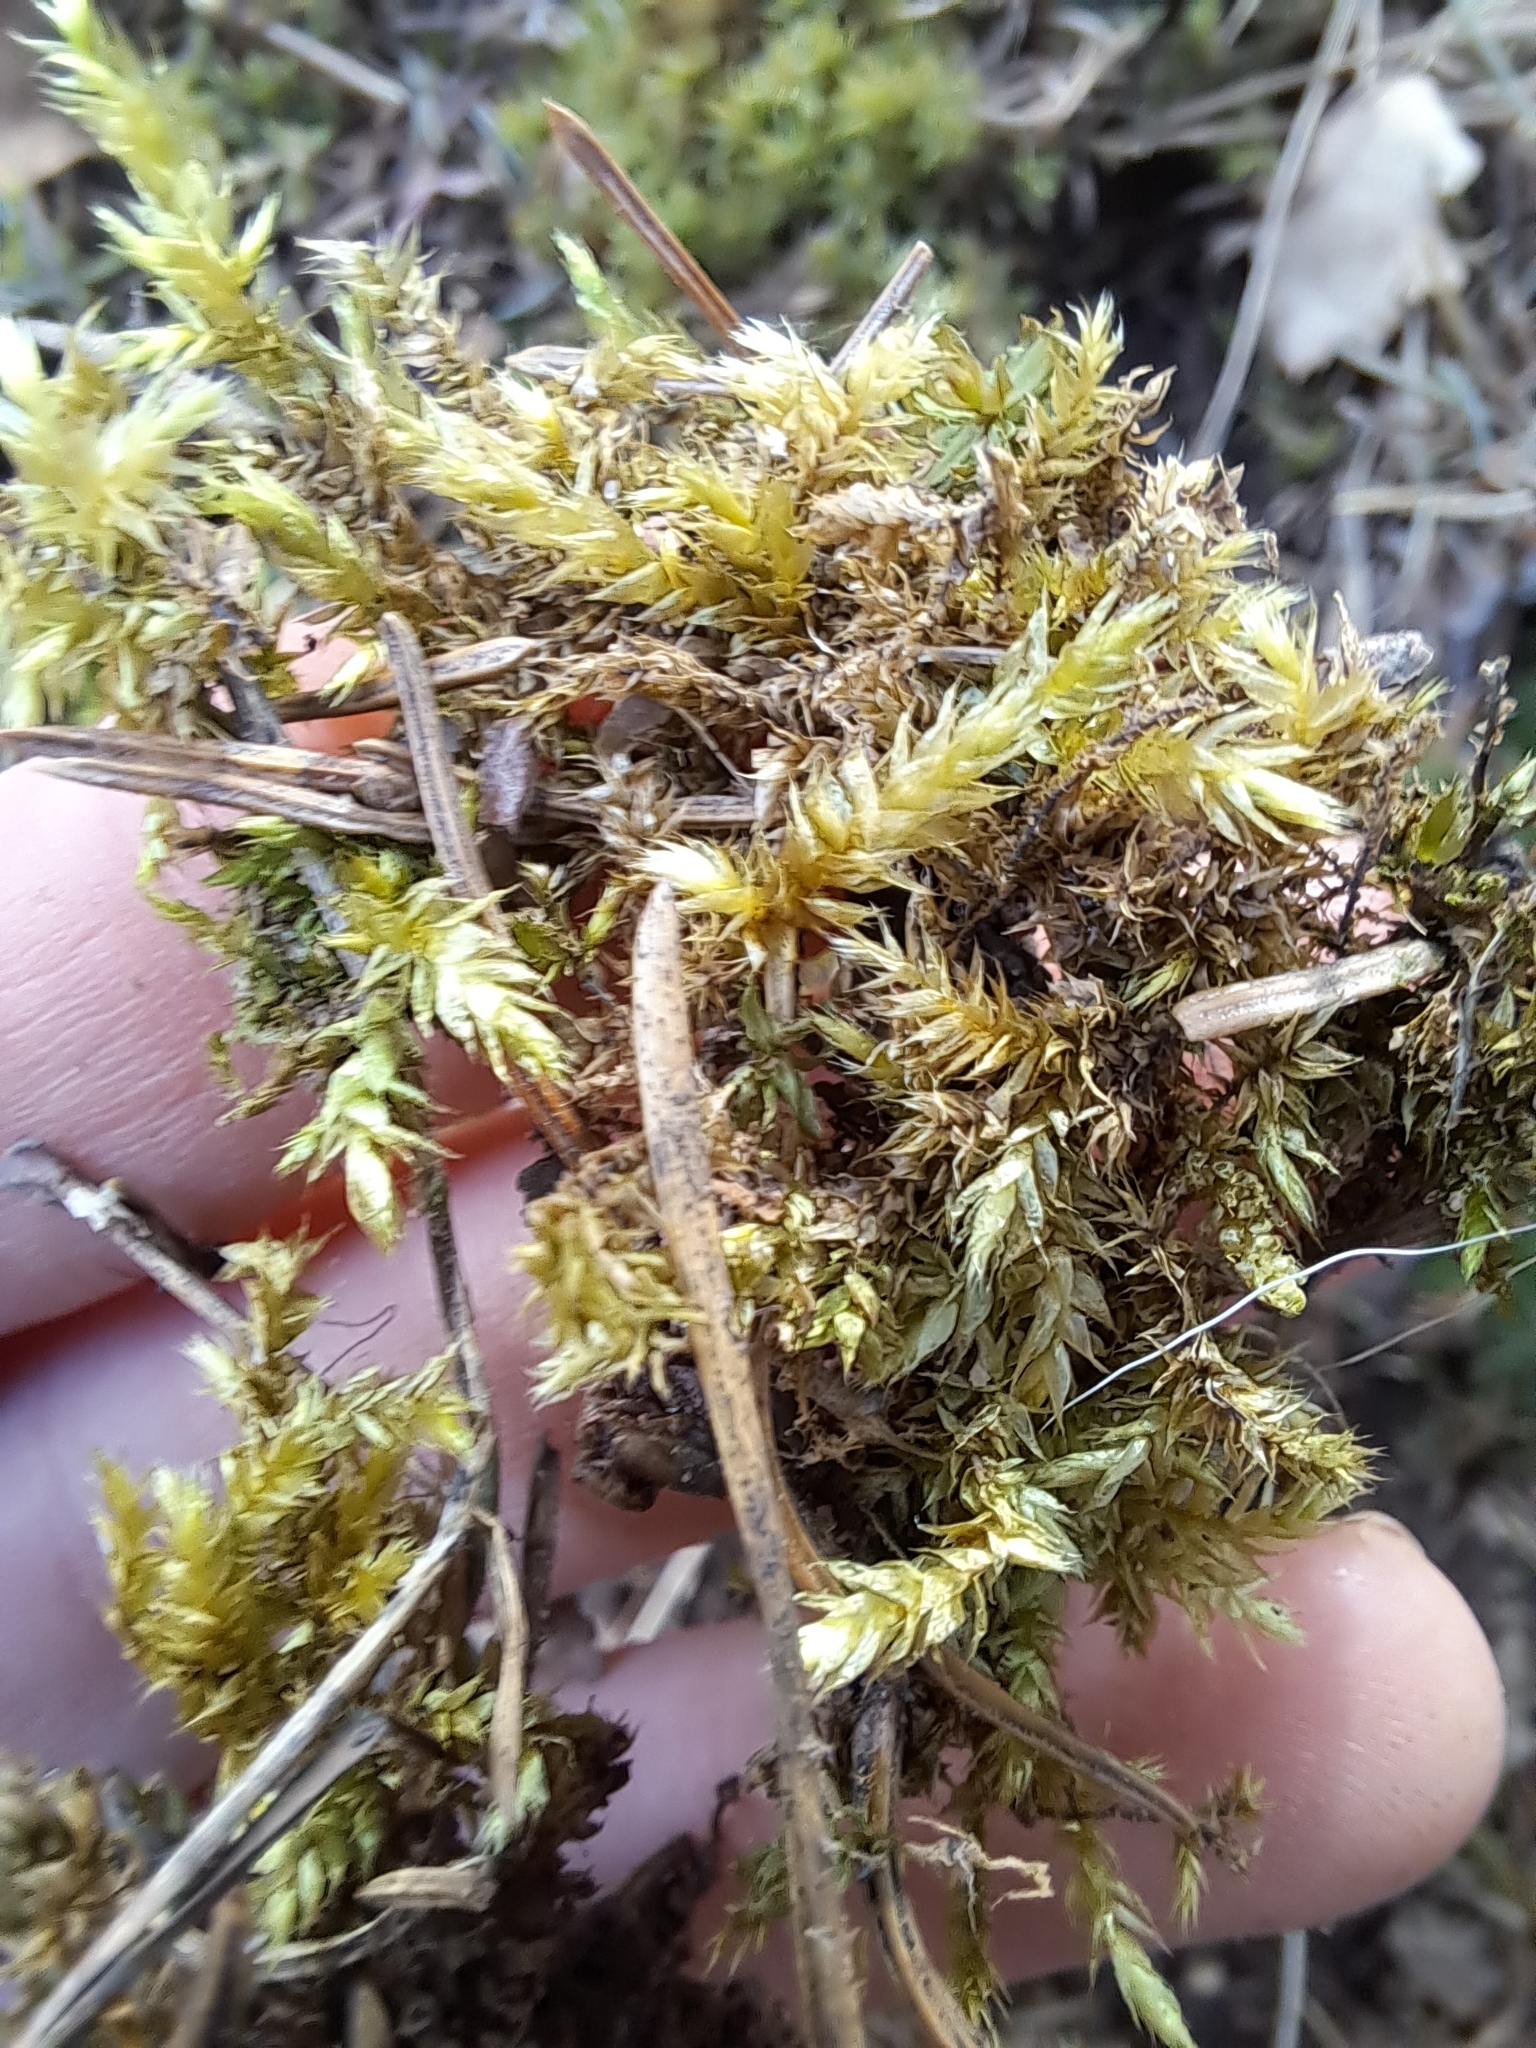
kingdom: Plantae
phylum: Bryophyta
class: Bryopsida
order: Hypnales
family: Hylocomiaceae
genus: Hylocomiadelphus
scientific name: Hylocomiadelphus triquetrus
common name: Rough goose neck moss
